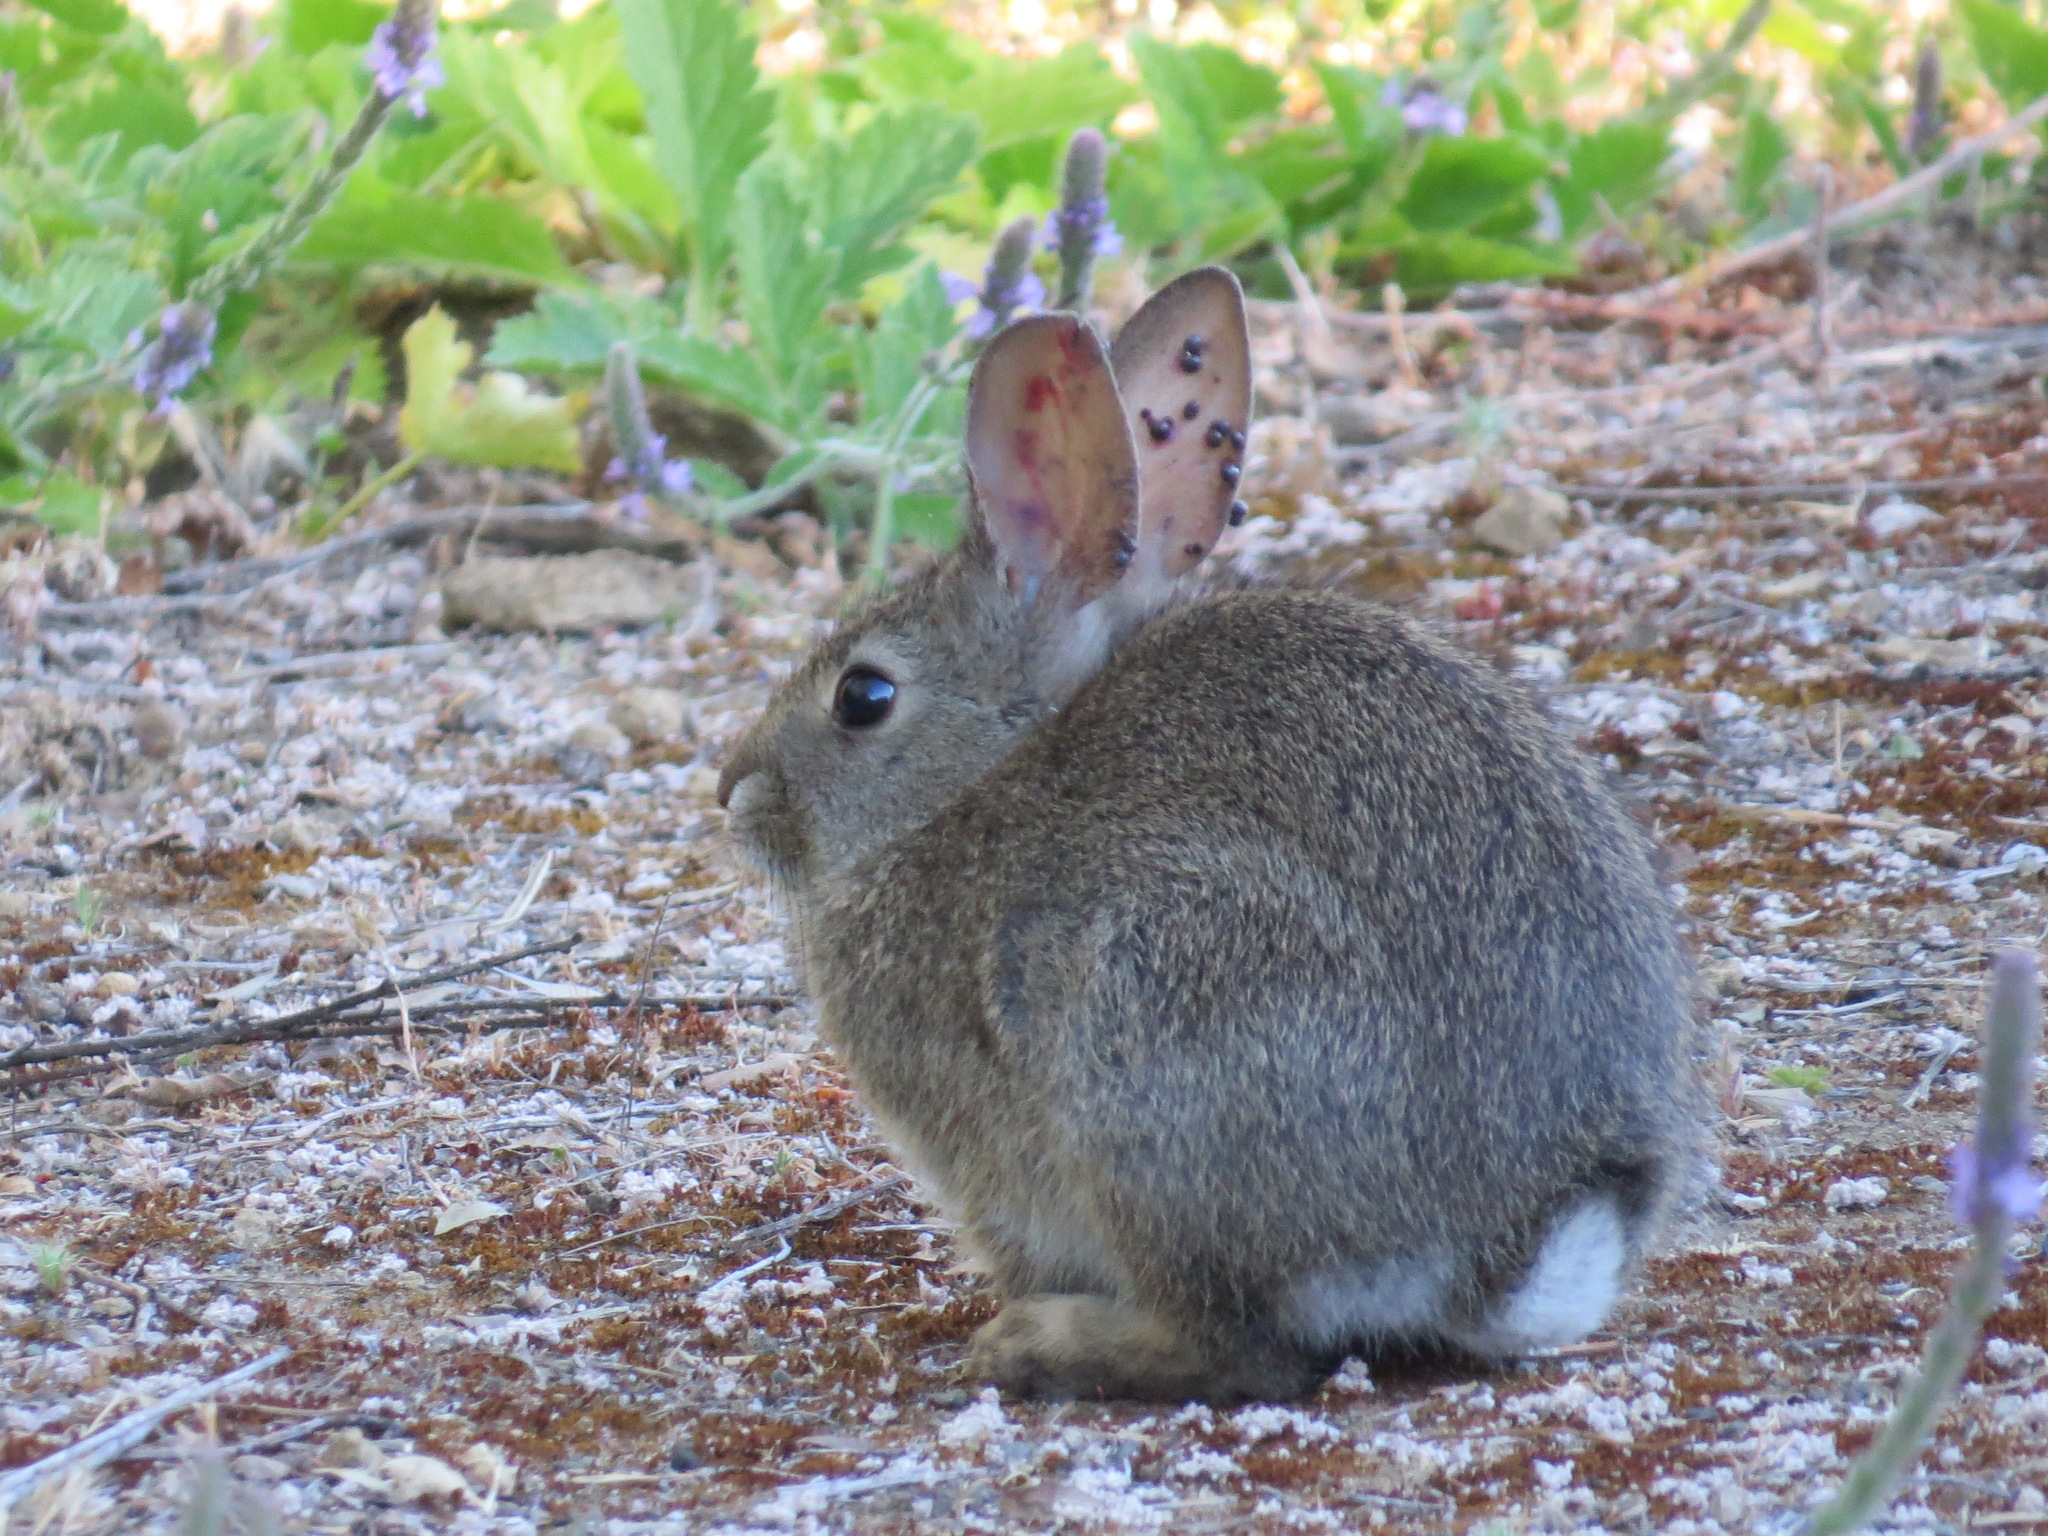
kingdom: Animalia
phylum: Chordata
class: Mammalia
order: Lagomorpha
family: Leporidae
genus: Sylvilagus
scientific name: Sylvilagus bachmani
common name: Brush rabbit
